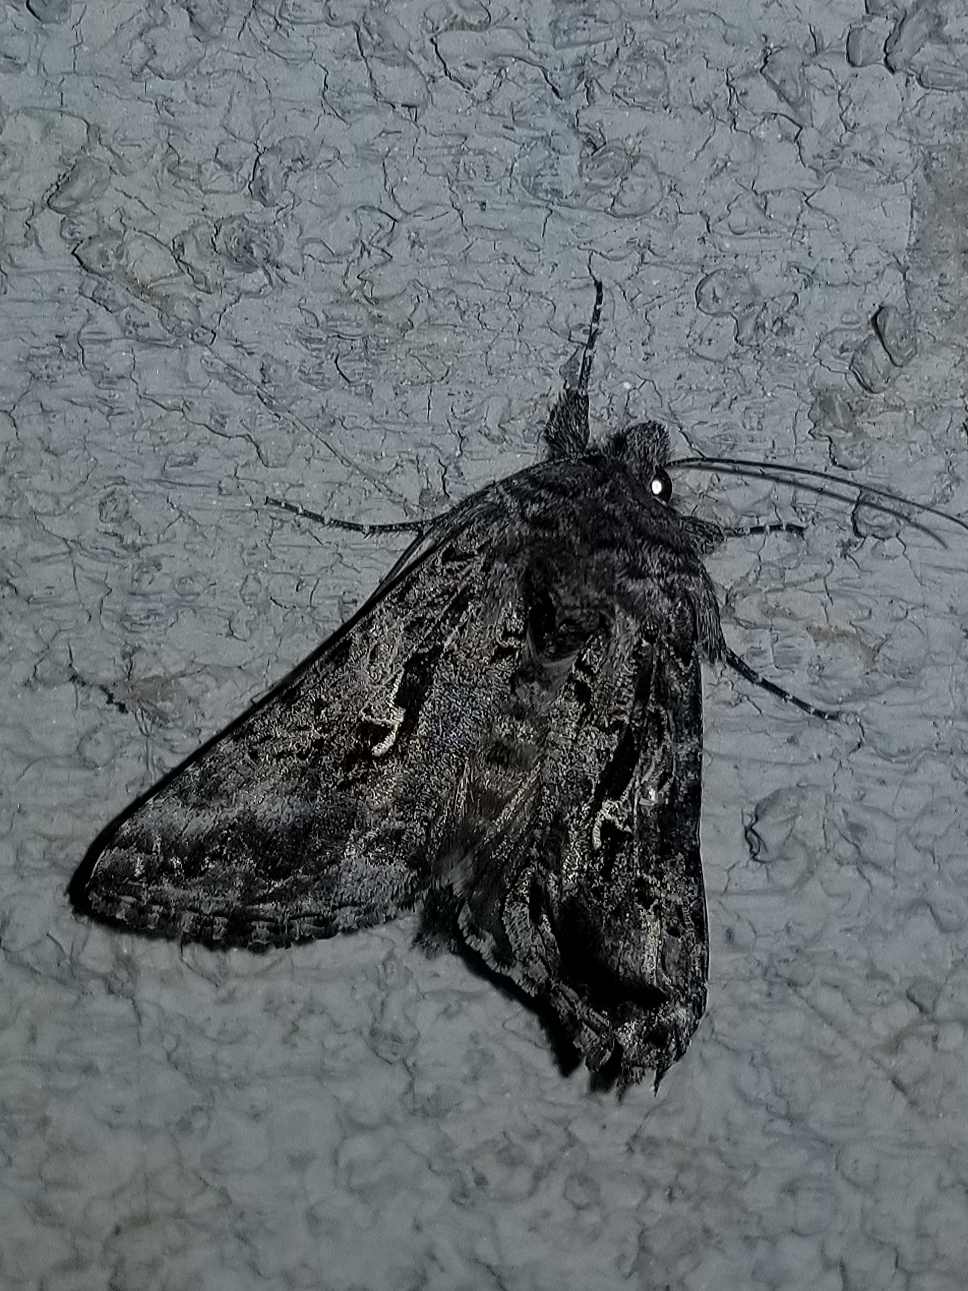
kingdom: Animalia
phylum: Arthropoda
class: Insecta
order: Lepidoptera
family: Noctuidae
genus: Autographa
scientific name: Autographa californica
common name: Alfalfa looper
